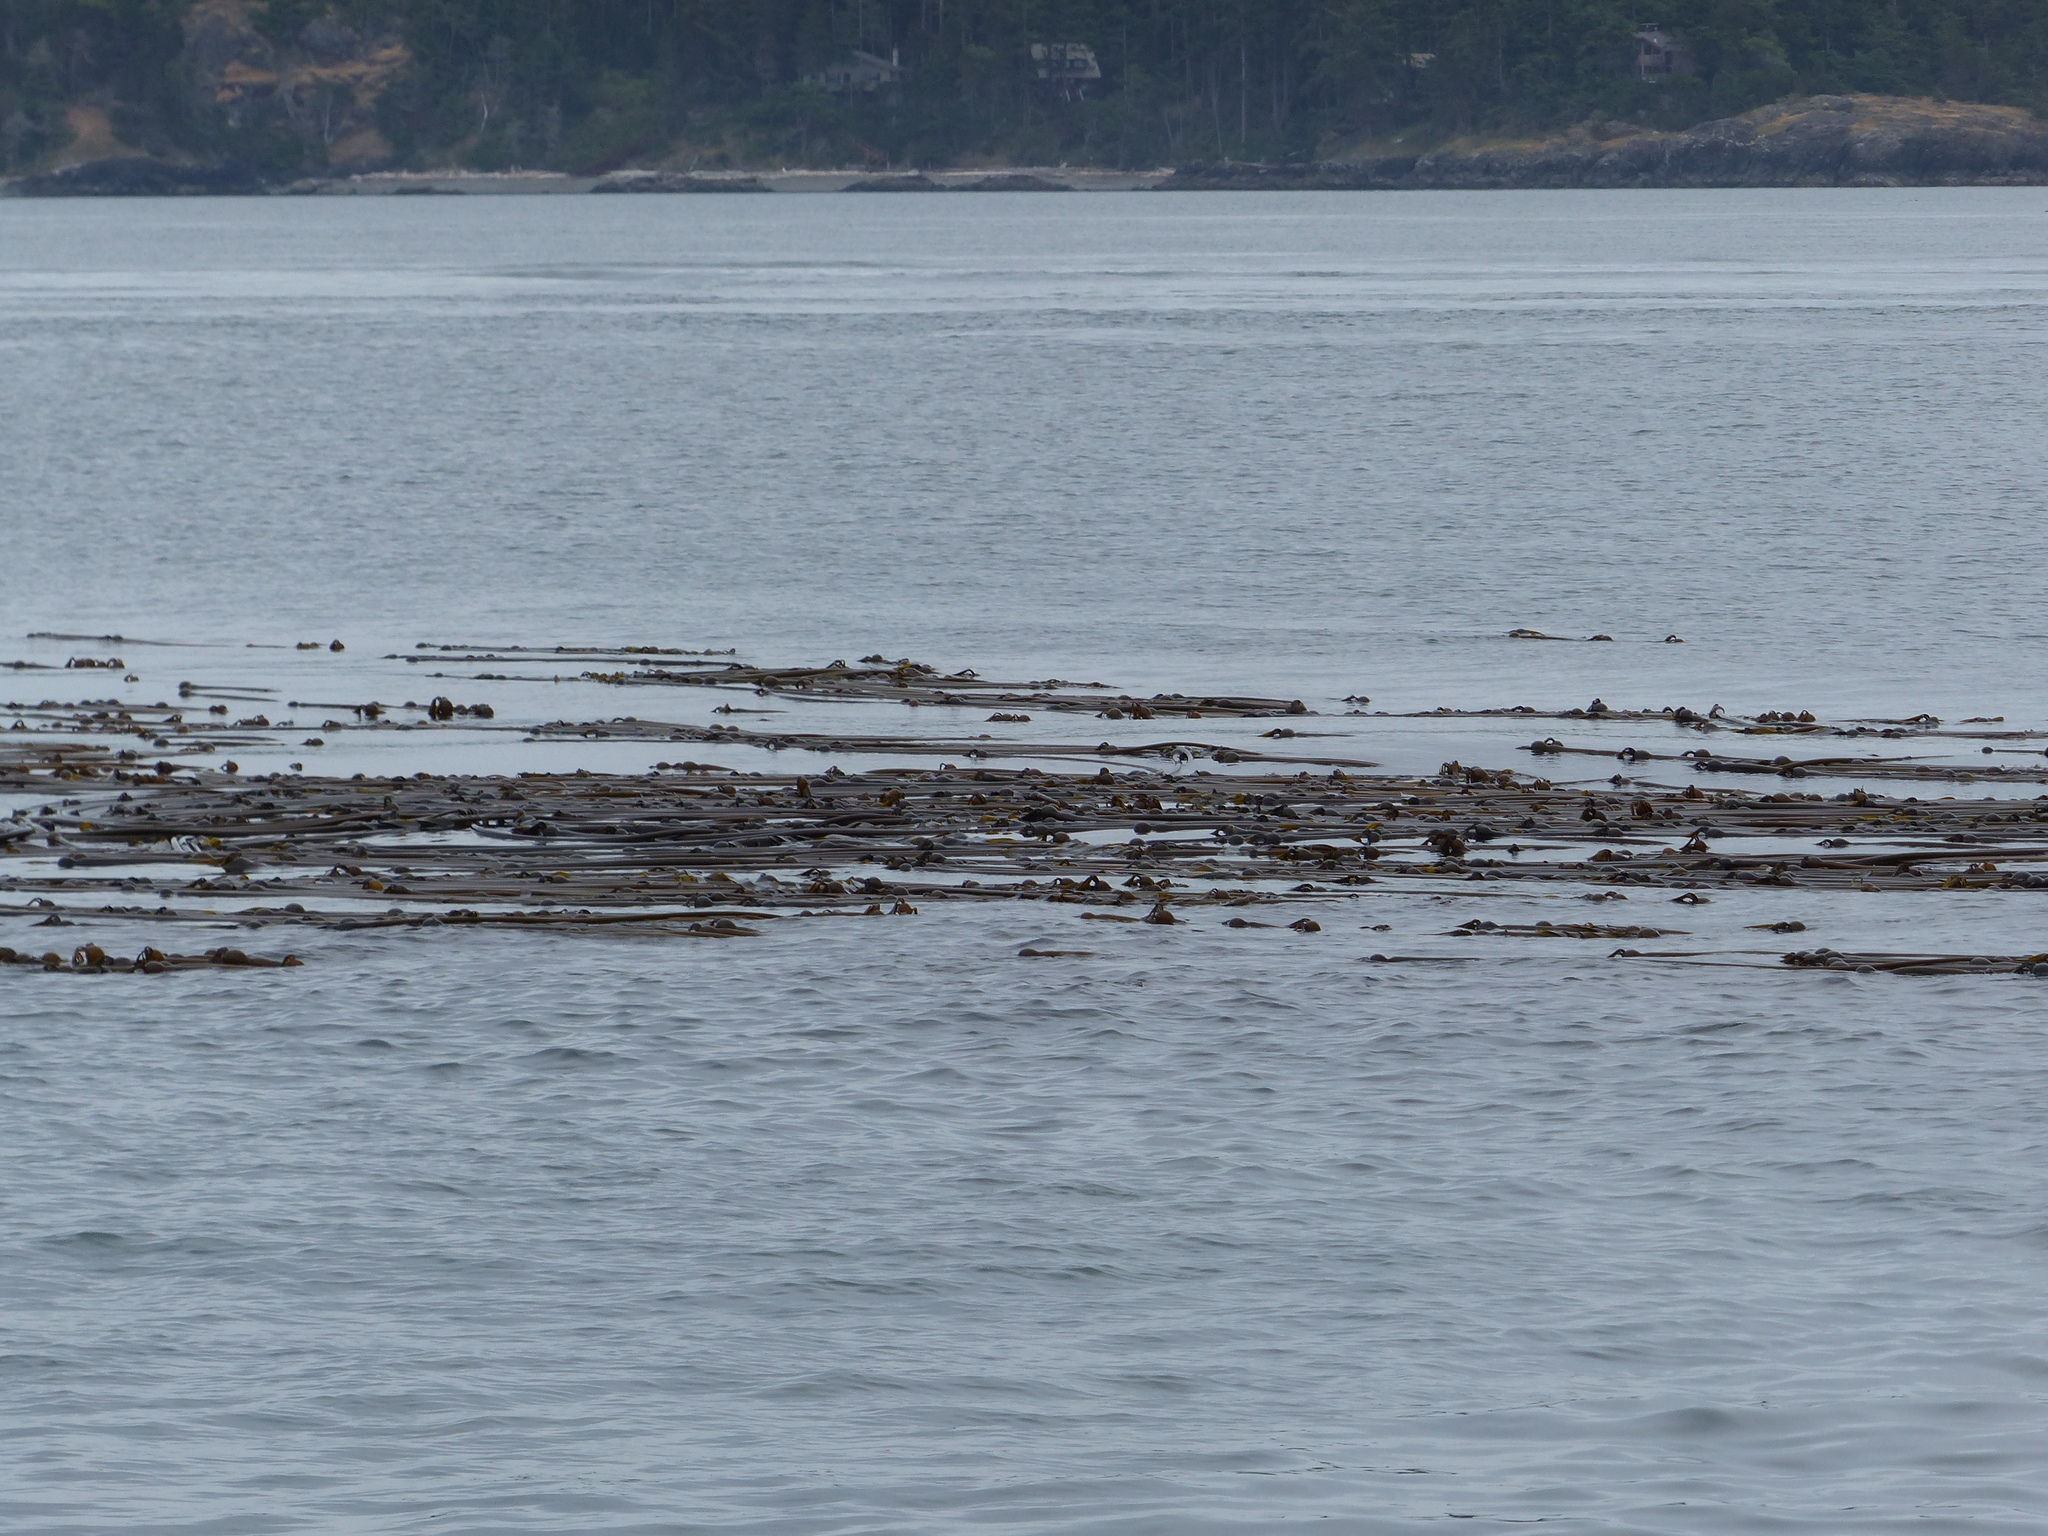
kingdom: Chromista
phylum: Ochrophyta
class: Phaeophyceae
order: Laminariales
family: Laminariaceae
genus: Nereocystis
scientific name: Nereocystis luetkeana
